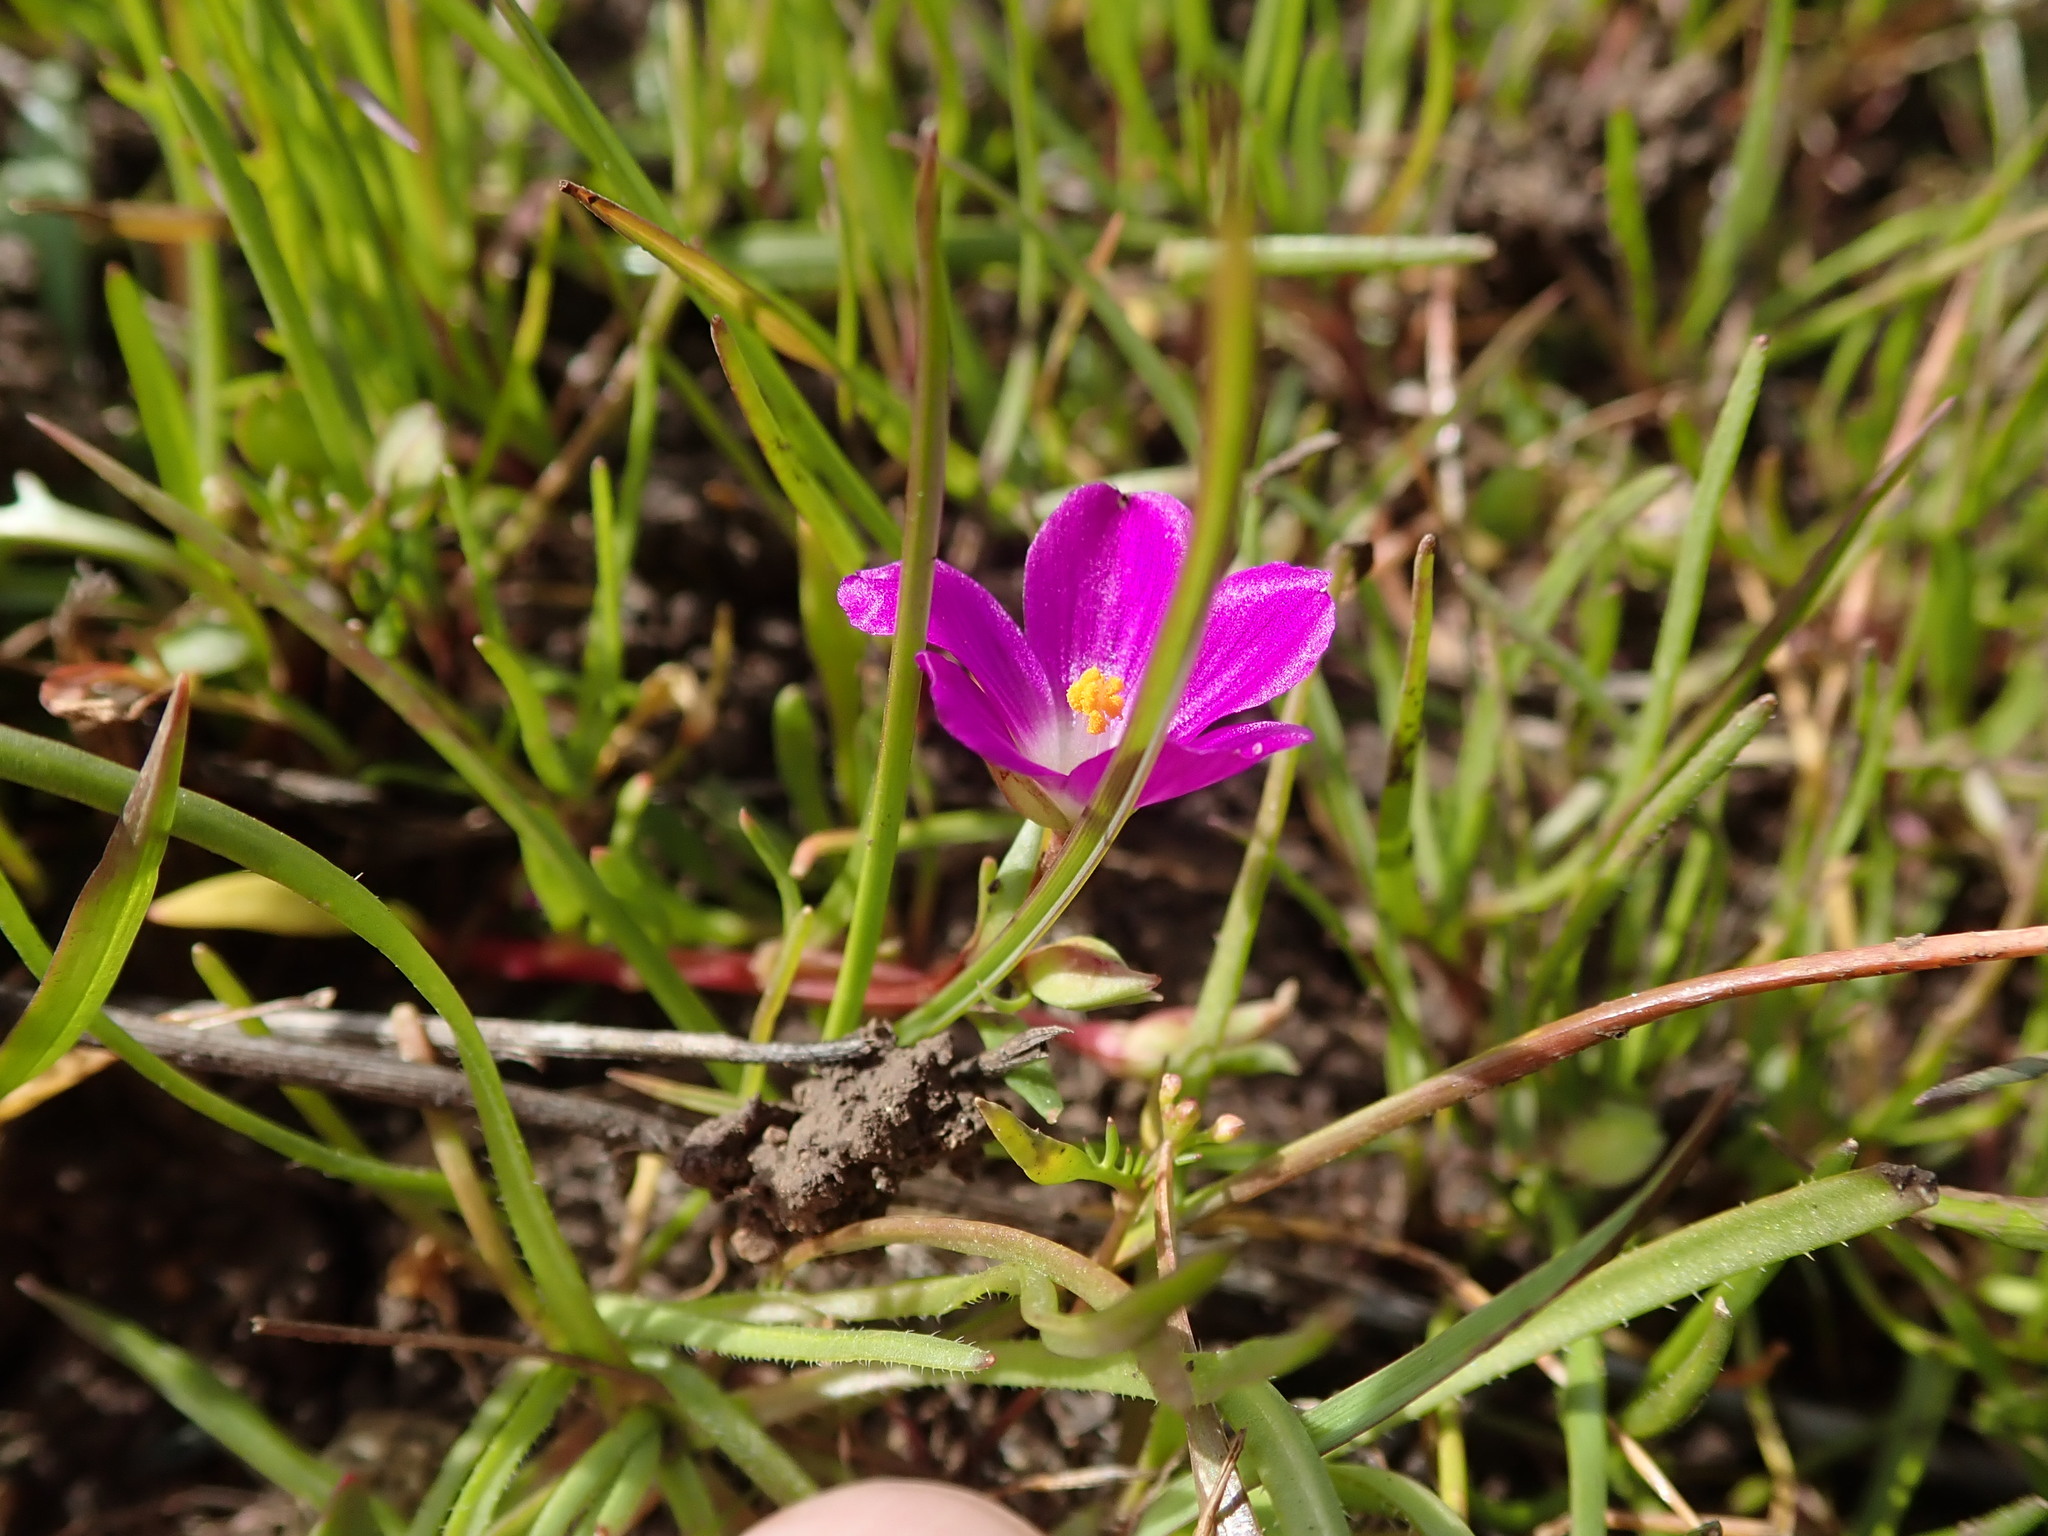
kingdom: Plantae
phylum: Tracheophyta
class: Magnoliopsida
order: Caryophyllales
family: Montiaceae
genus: Calandrinia
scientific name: Calandrinia menziesii
